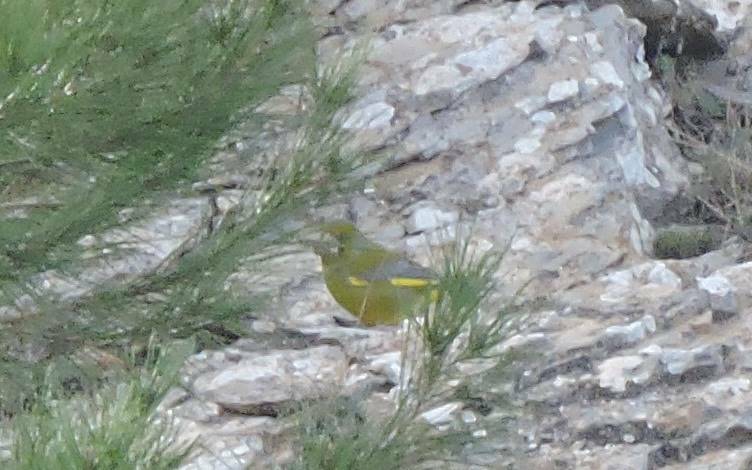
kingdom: Plantae
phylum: Tracheophyta
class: Liliopsida
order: Poales
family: Poaceae
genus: Chloris
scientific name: Chloris chloris
